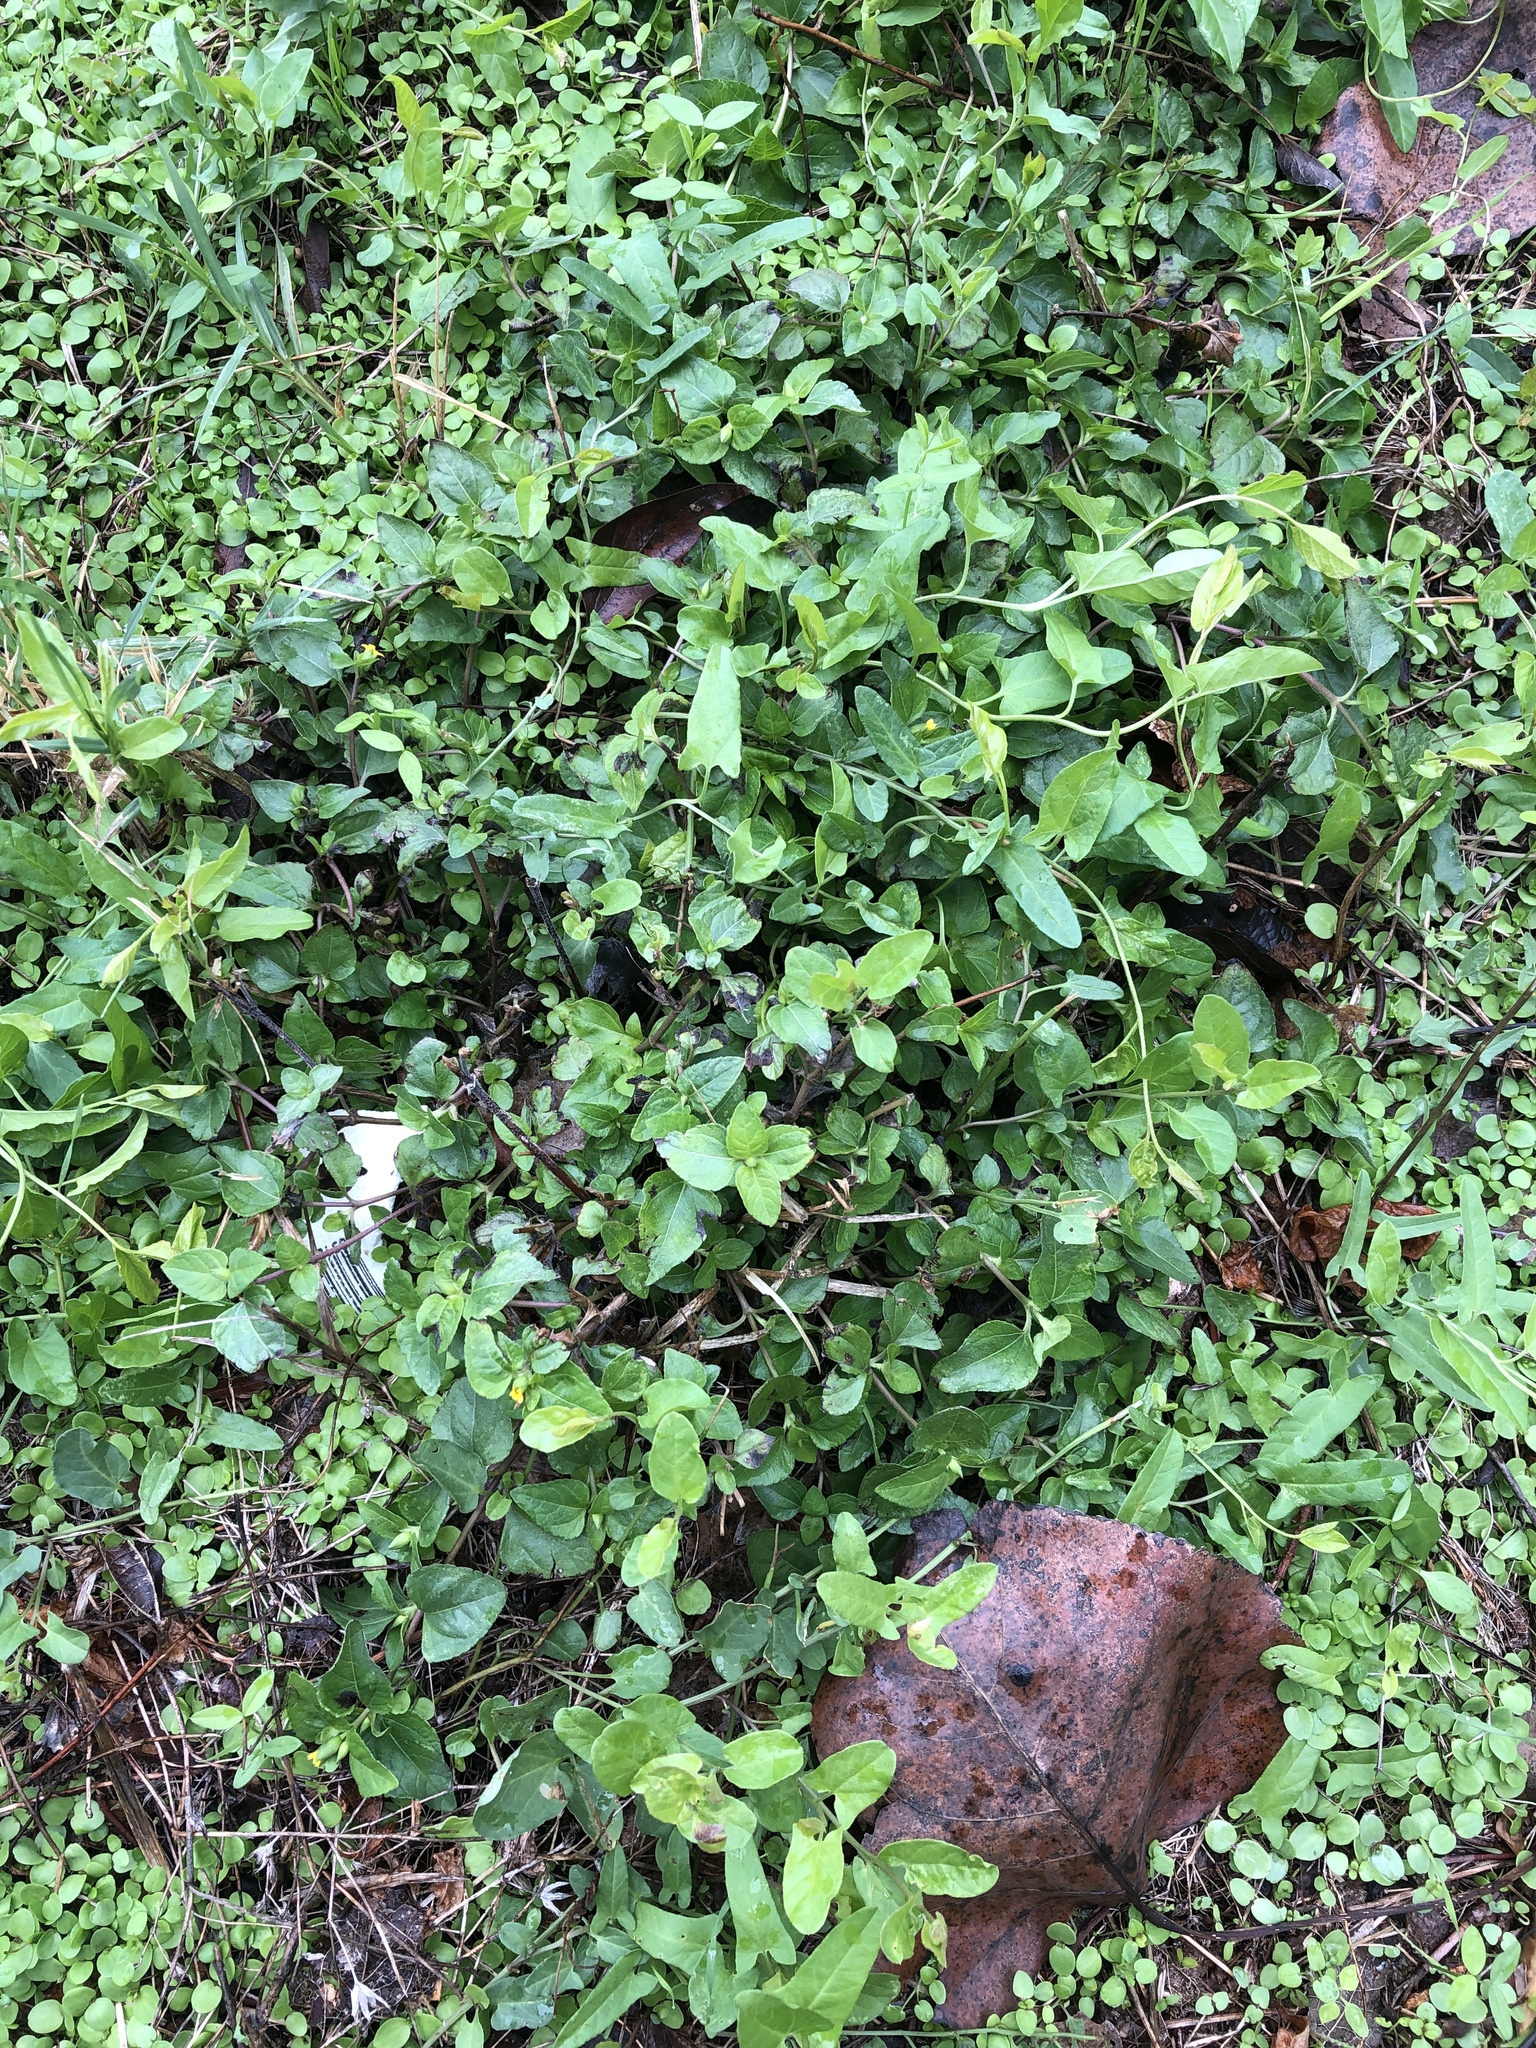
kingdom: Plantae
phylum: Tracheophyta
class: Magnoliopsida
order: Asterales
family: Asteraceae
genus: Calyptocarpus
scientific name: Calyptocarpus vialis
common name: Straggler daisy
